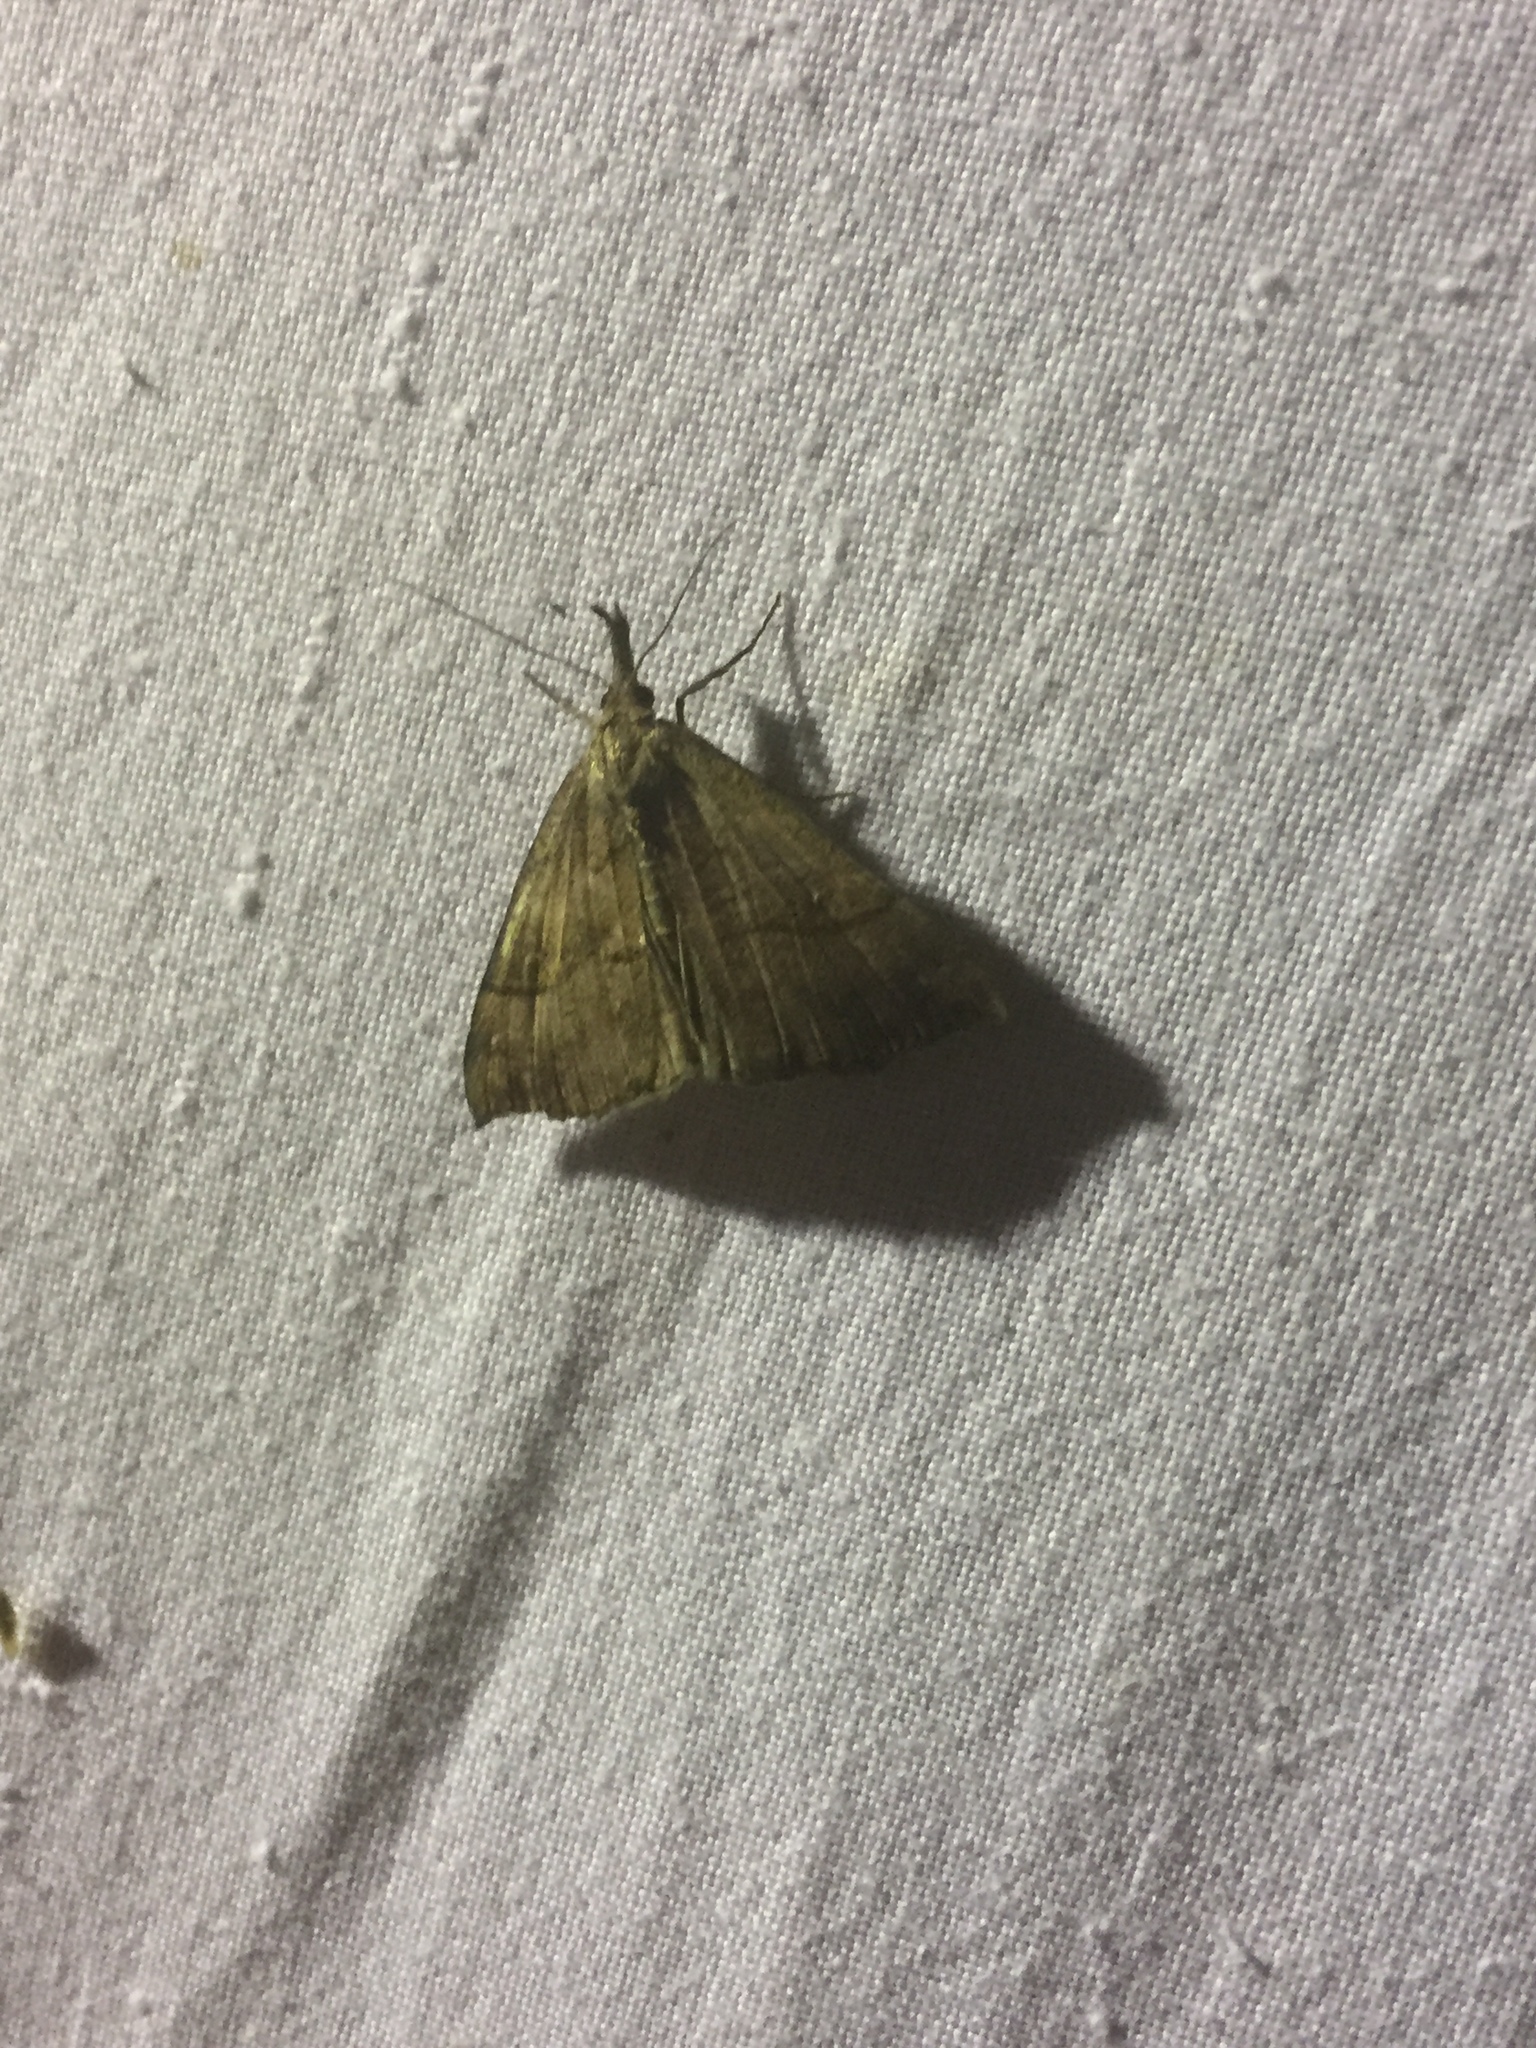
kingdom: Animalia
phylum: Arthropoda
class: Insecta
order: Lepidoptera
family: Erebidae
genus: Hypena
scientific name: Hypena proboscidalis
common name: Snout
